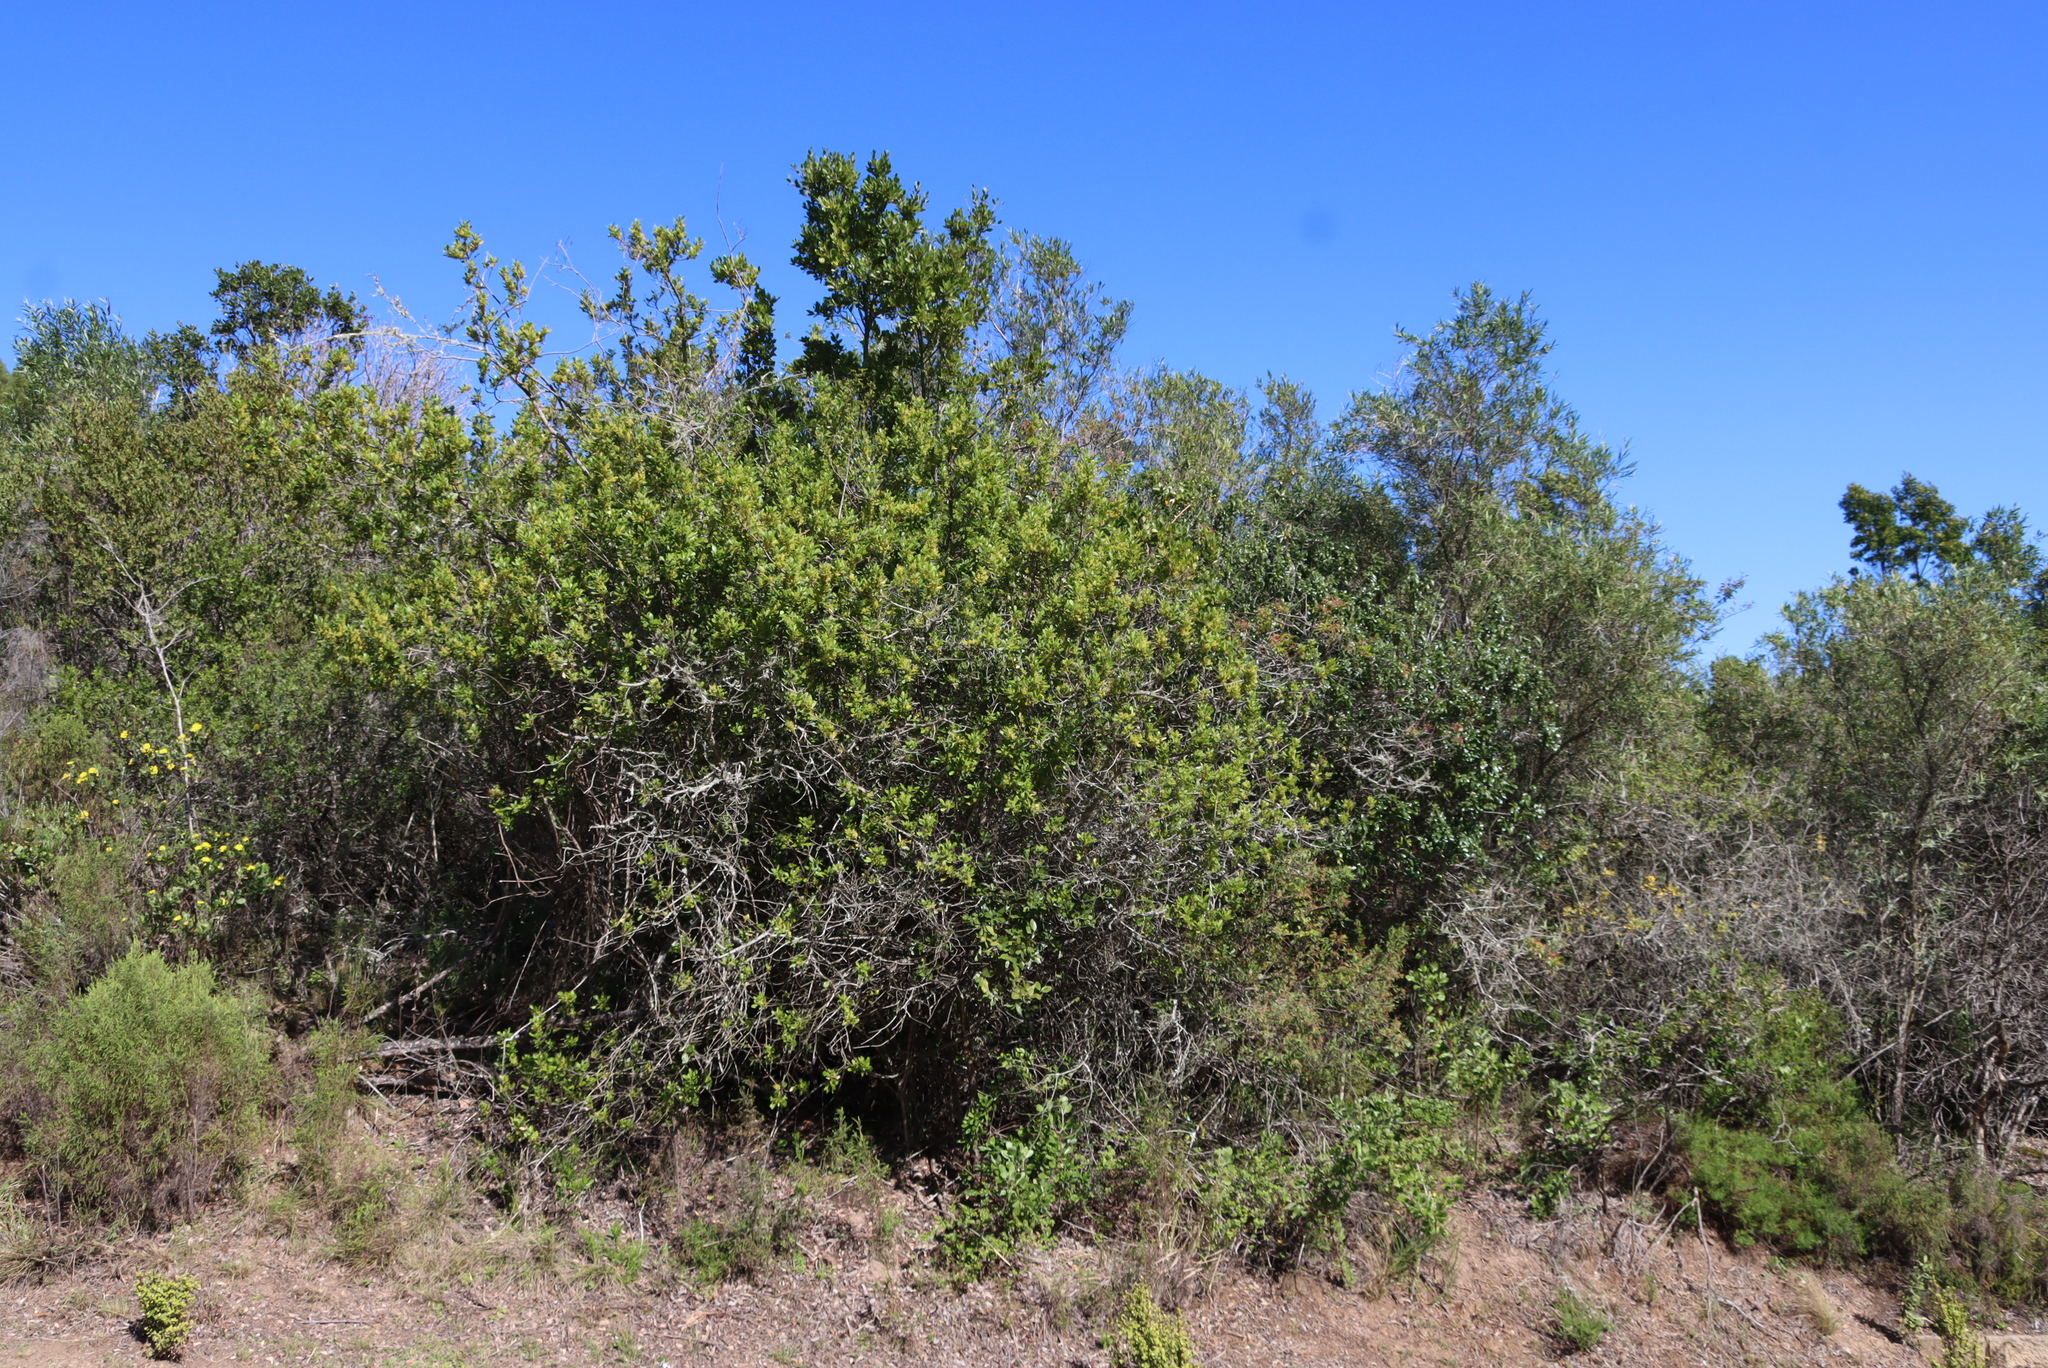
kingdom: Plantae
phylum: Tracheophyta
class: Magnoliopsida
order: Sapindales
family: Anacardiaceae
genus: Searsia
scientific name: Searsia lucida
